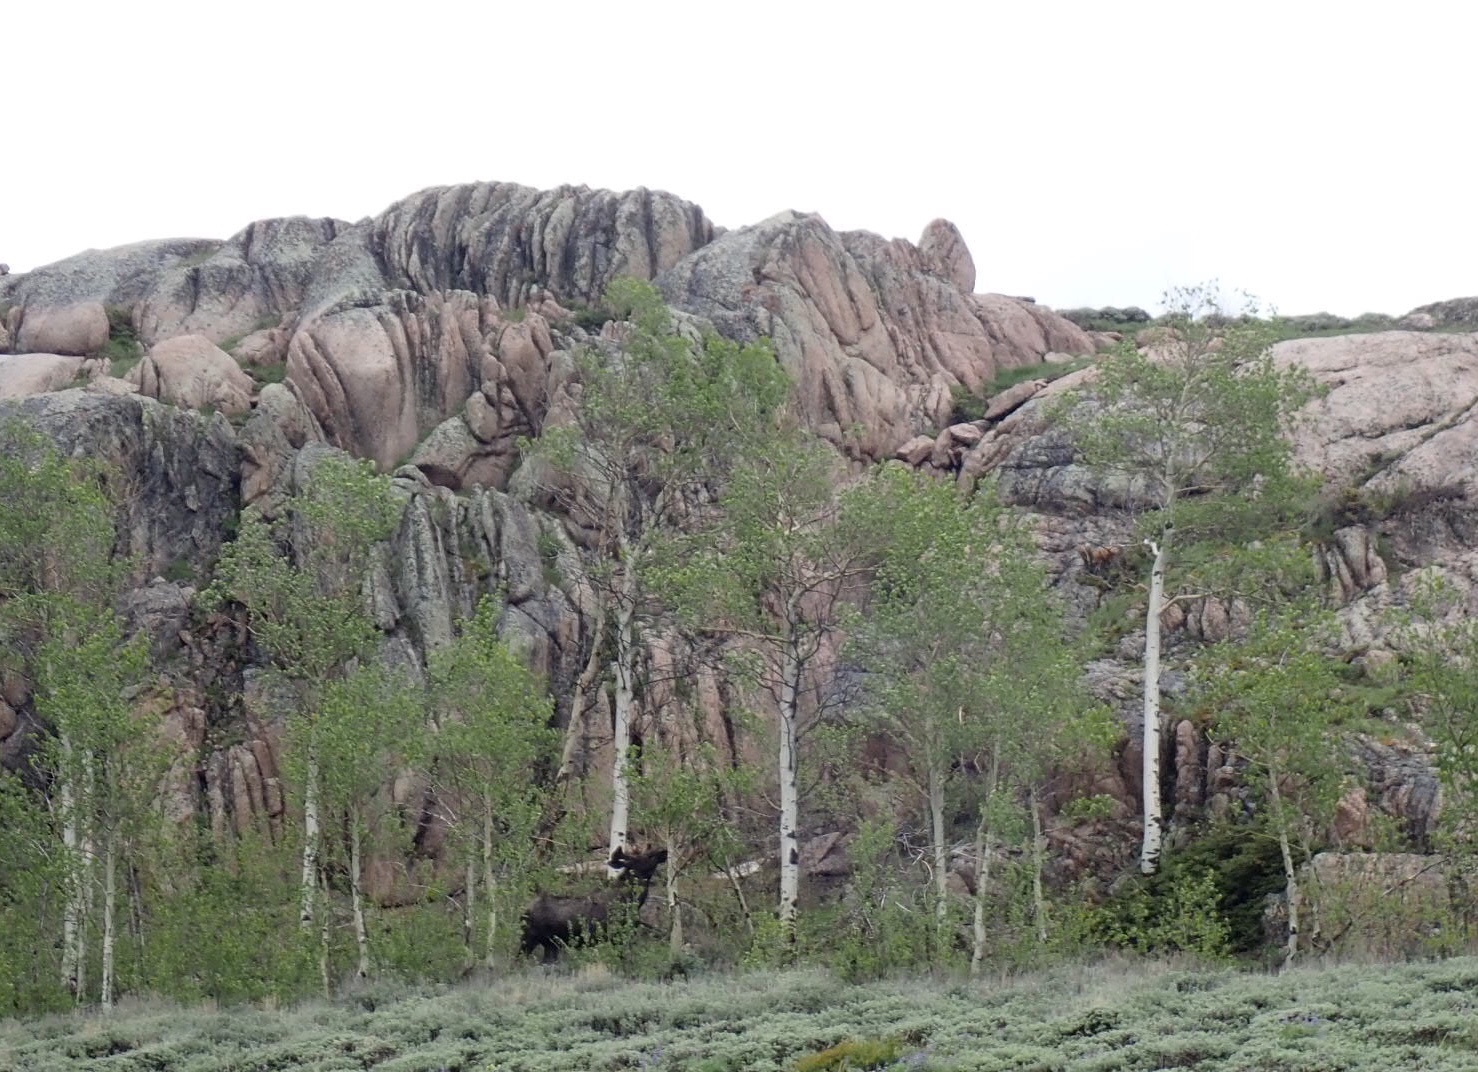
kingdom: Plantae
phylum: Tracheophyta
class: Magnoliopsida
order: Malpighiales
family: Salicaceae
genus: Populus
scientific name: Populus tremuloides
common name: Quaking aspen
